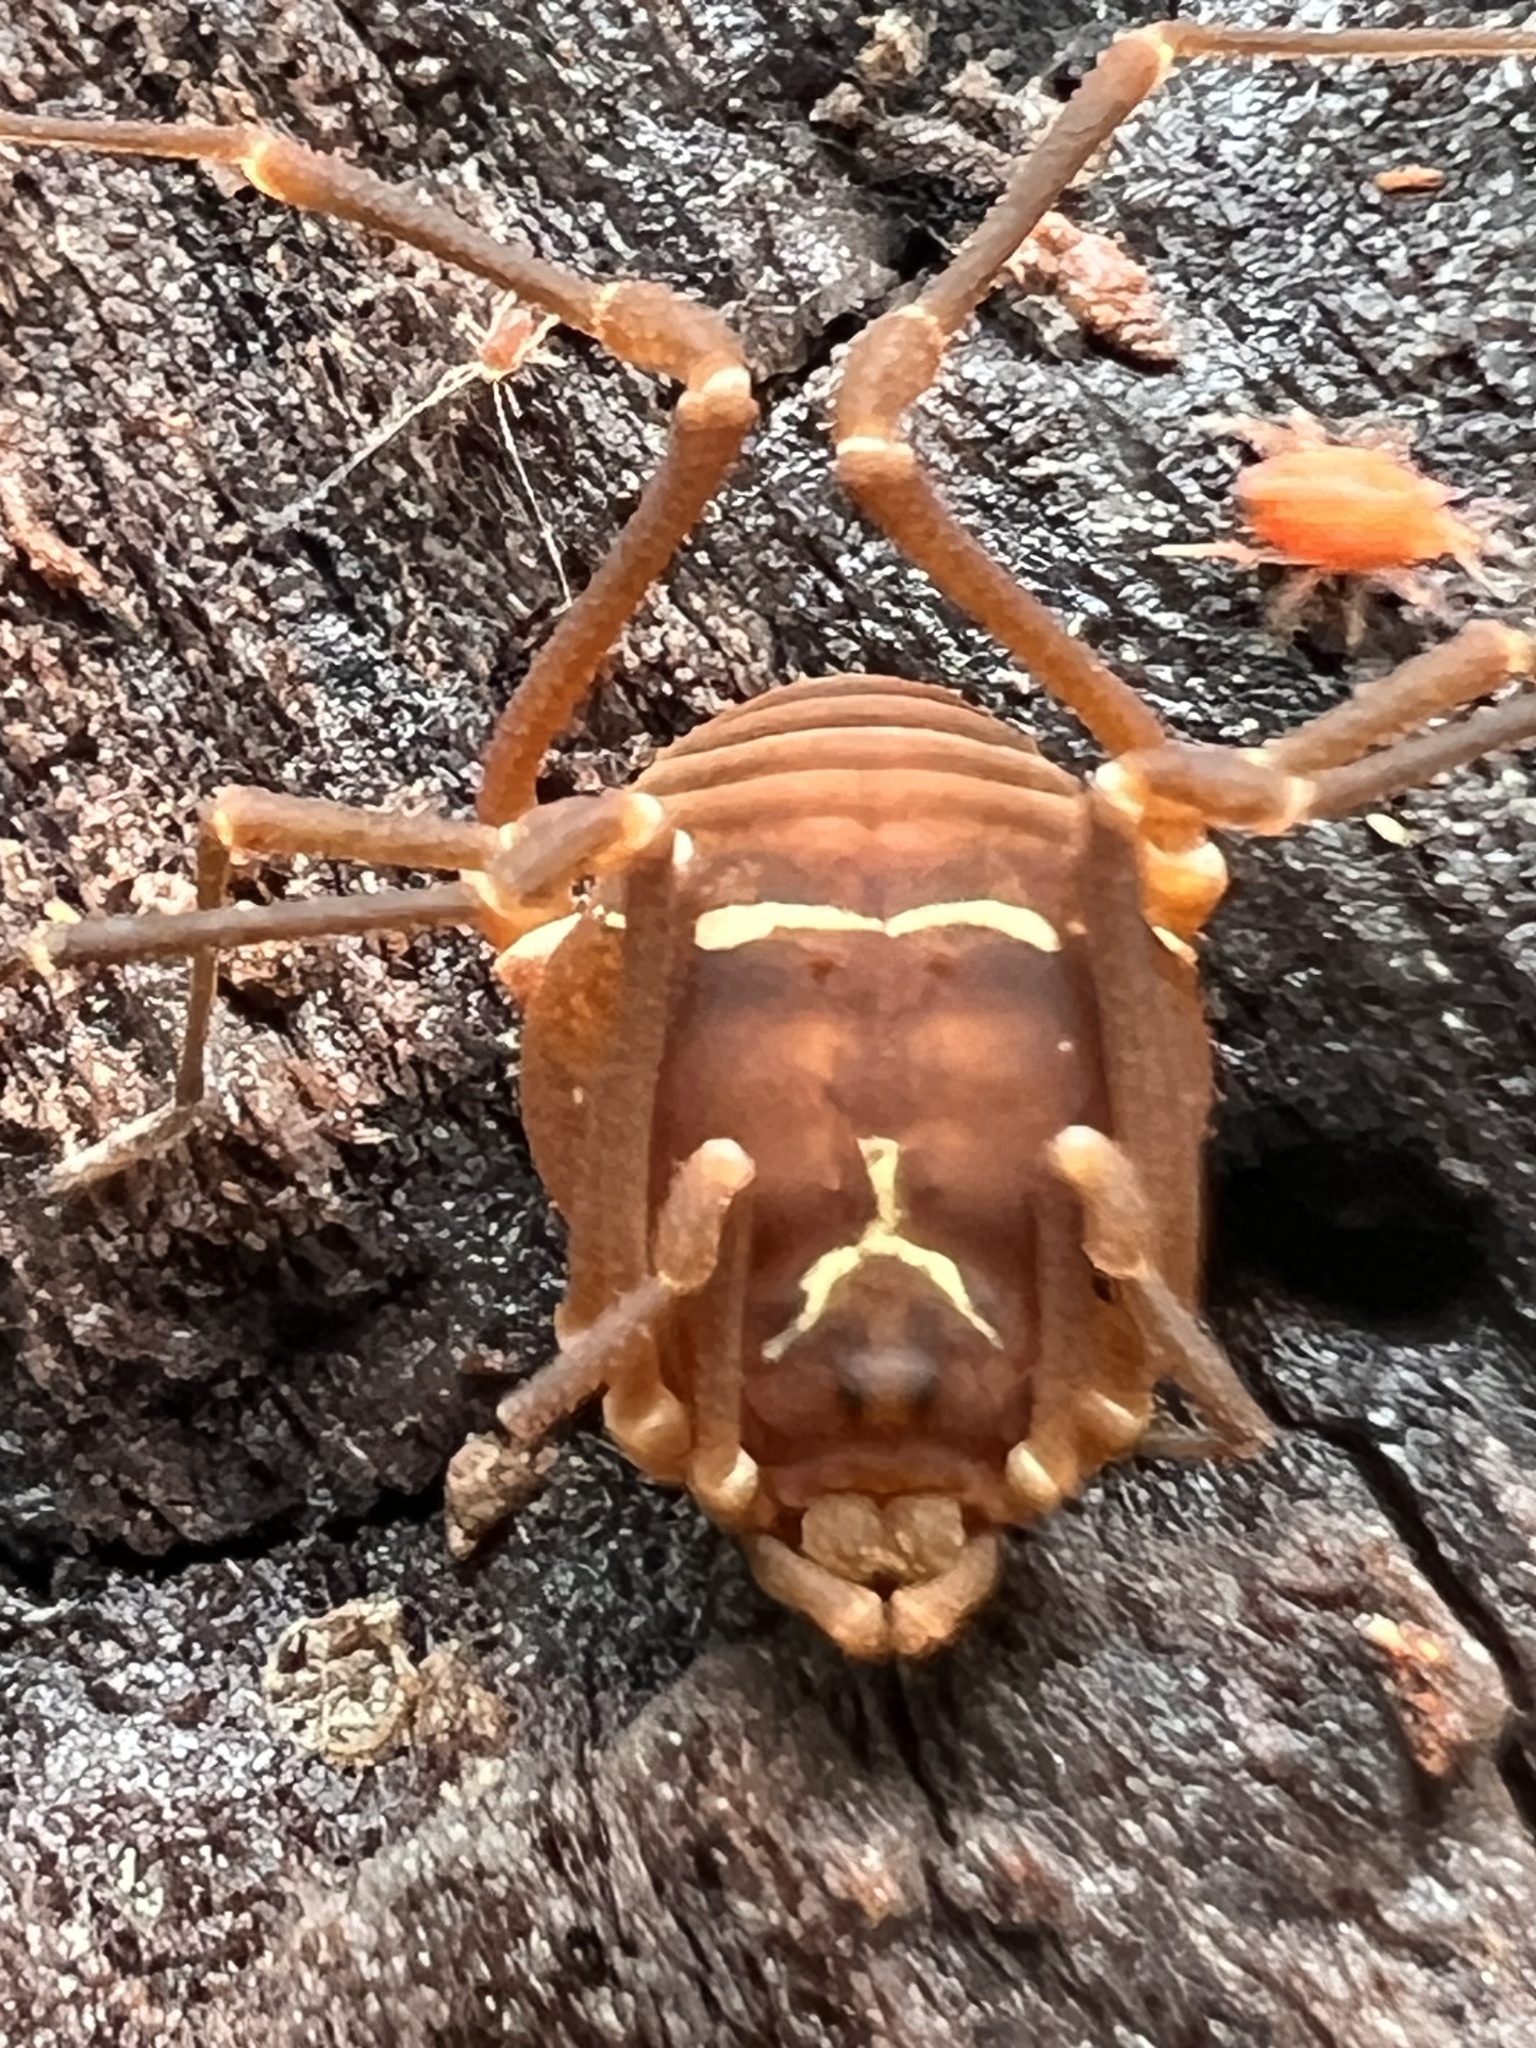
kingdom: Animalia
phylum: Arthropoda
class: Arachnida
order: Opiliones
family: Cosmetidae
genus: Libitioides
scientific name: Libitioides sayi
